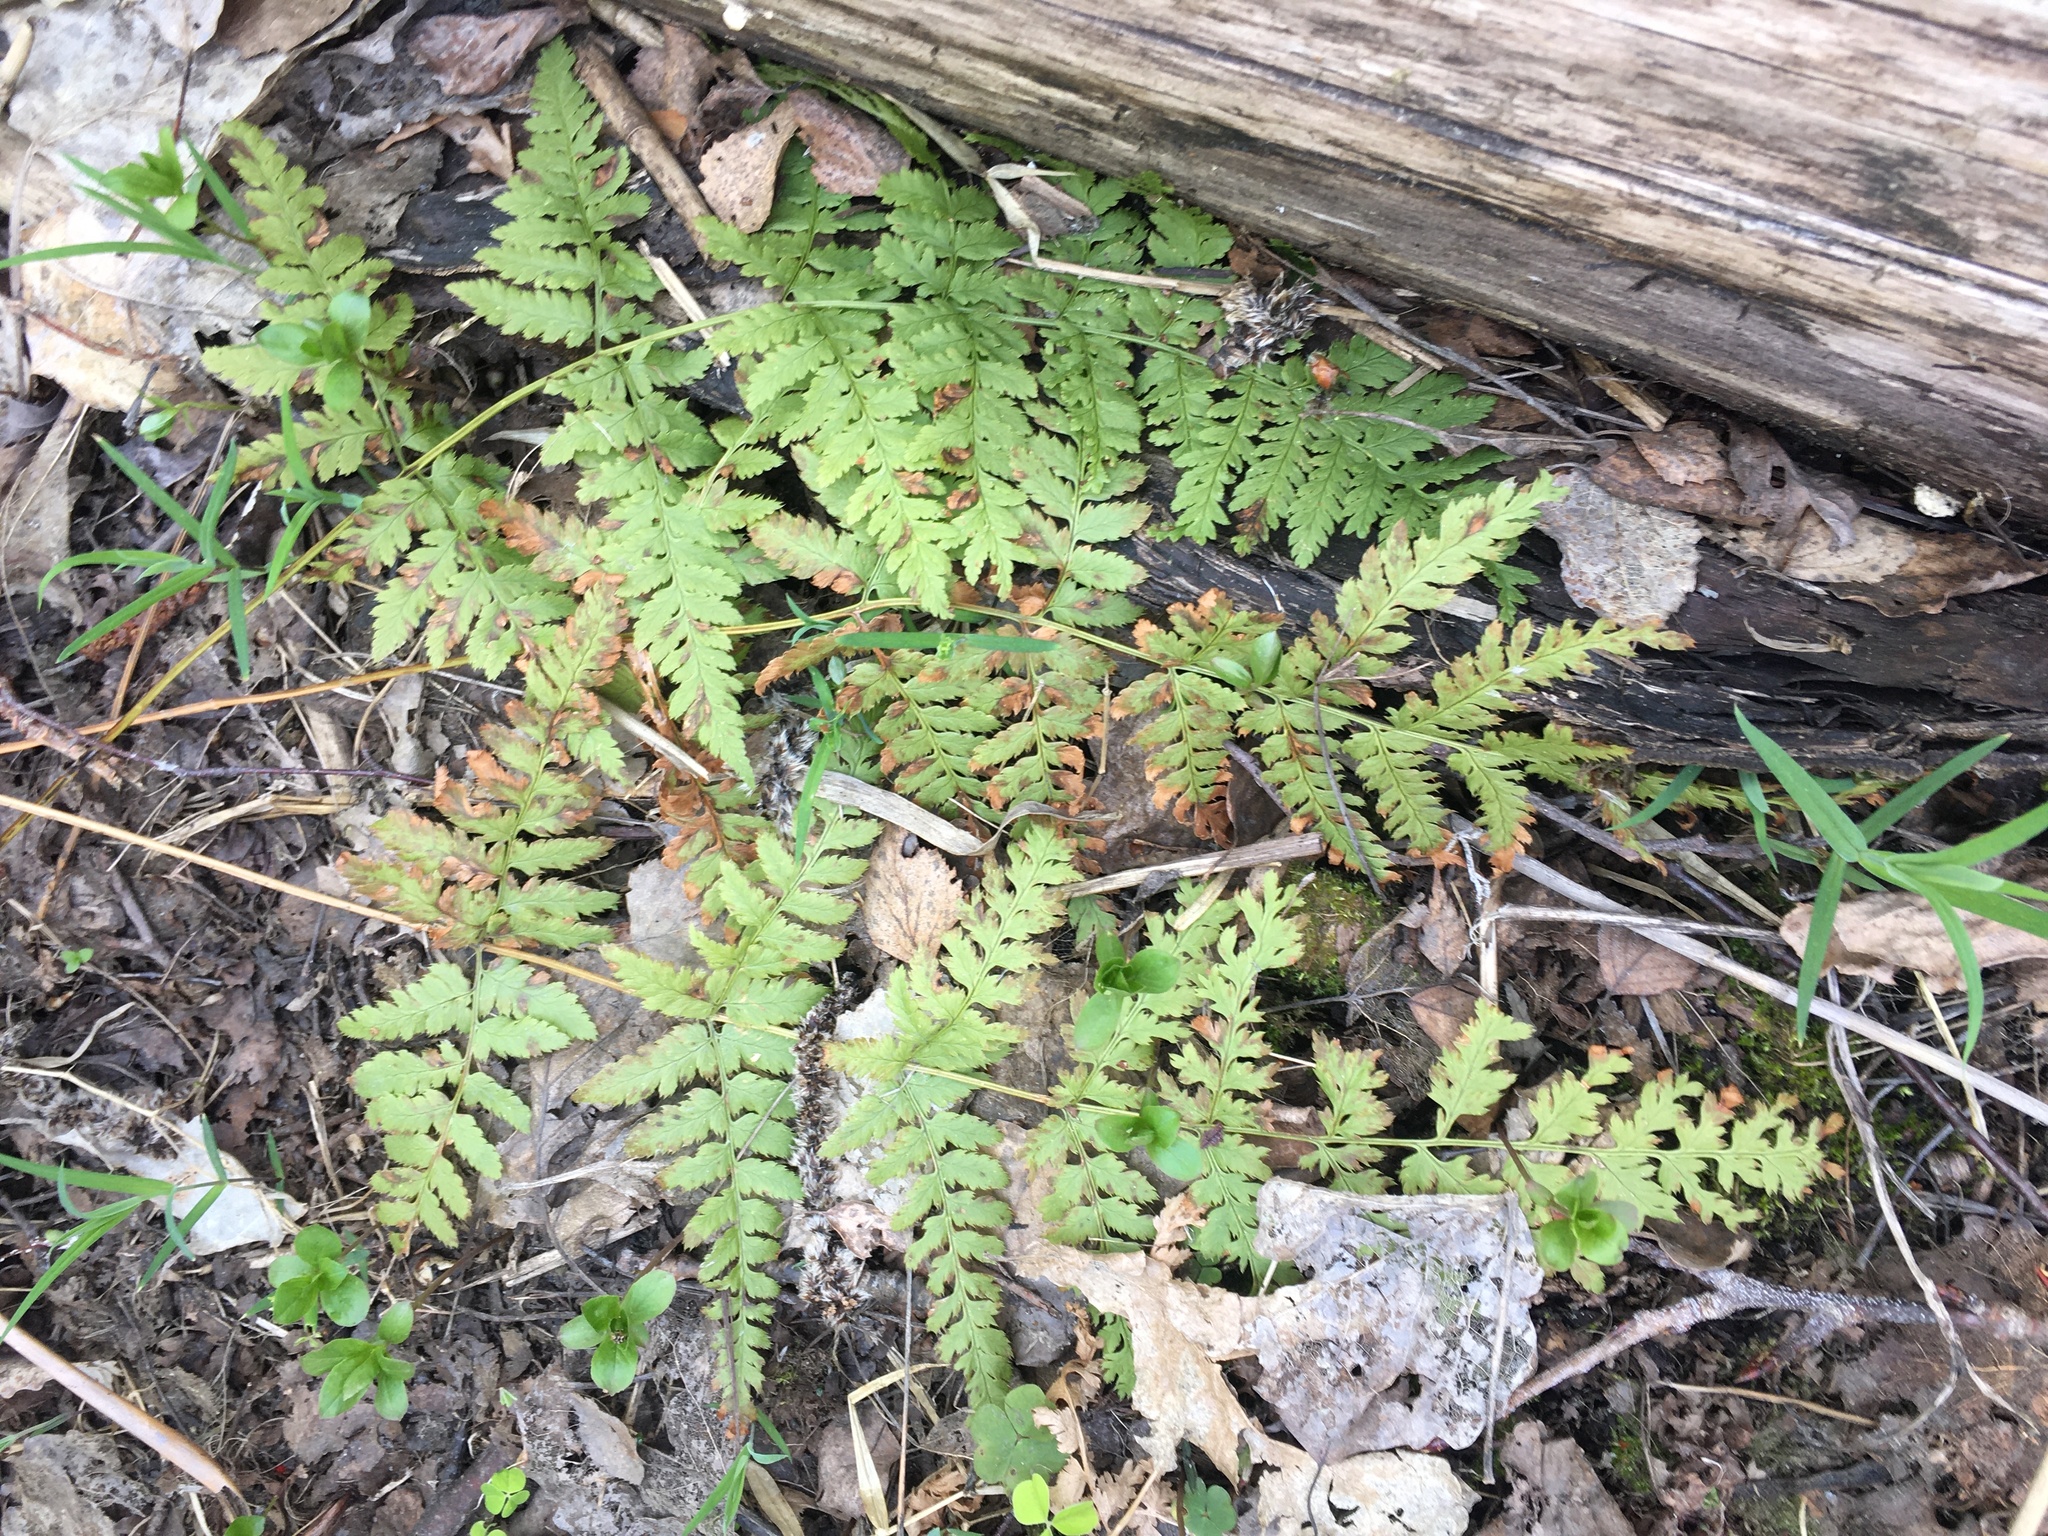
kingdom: Plantae
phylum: Tracheophyta
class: Polypodiopsida
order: Polypodiales
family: Dryopteridaceae
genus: Dryopteris
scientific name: Dryopteris carthusiana
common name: Narrow buckler-fern
